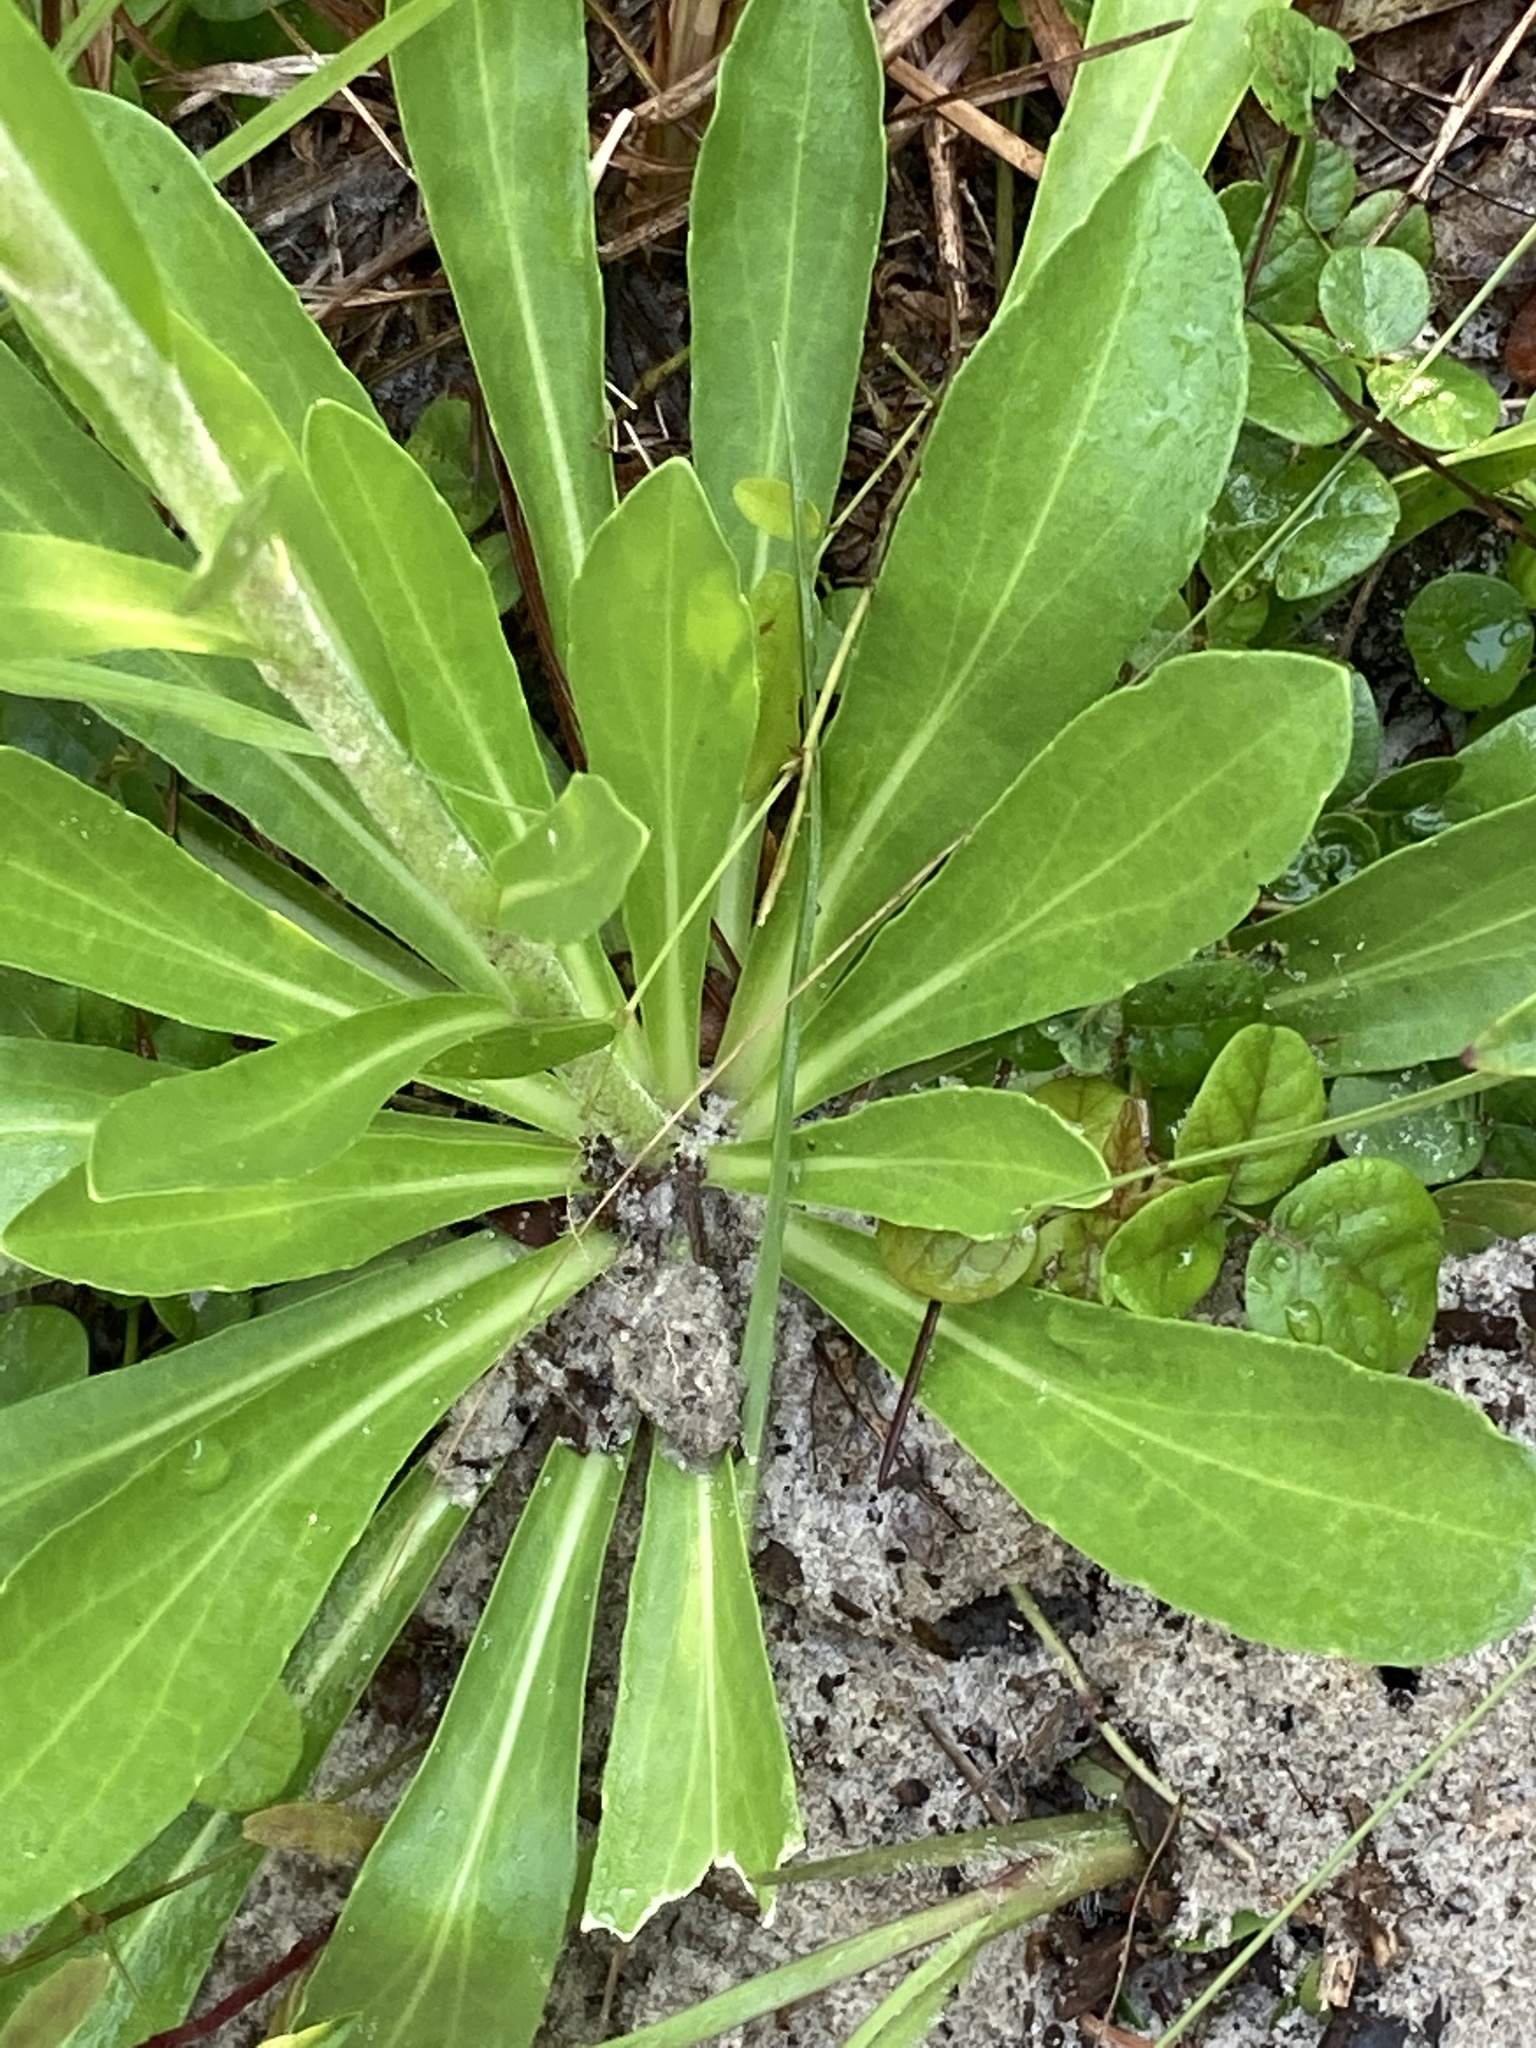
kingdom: Plantae
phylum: Tracheophyta
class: Magnoliopsida
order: Asterales
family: Asteraceae
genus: Carphephorus
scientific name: Carphephorus corymbosus
